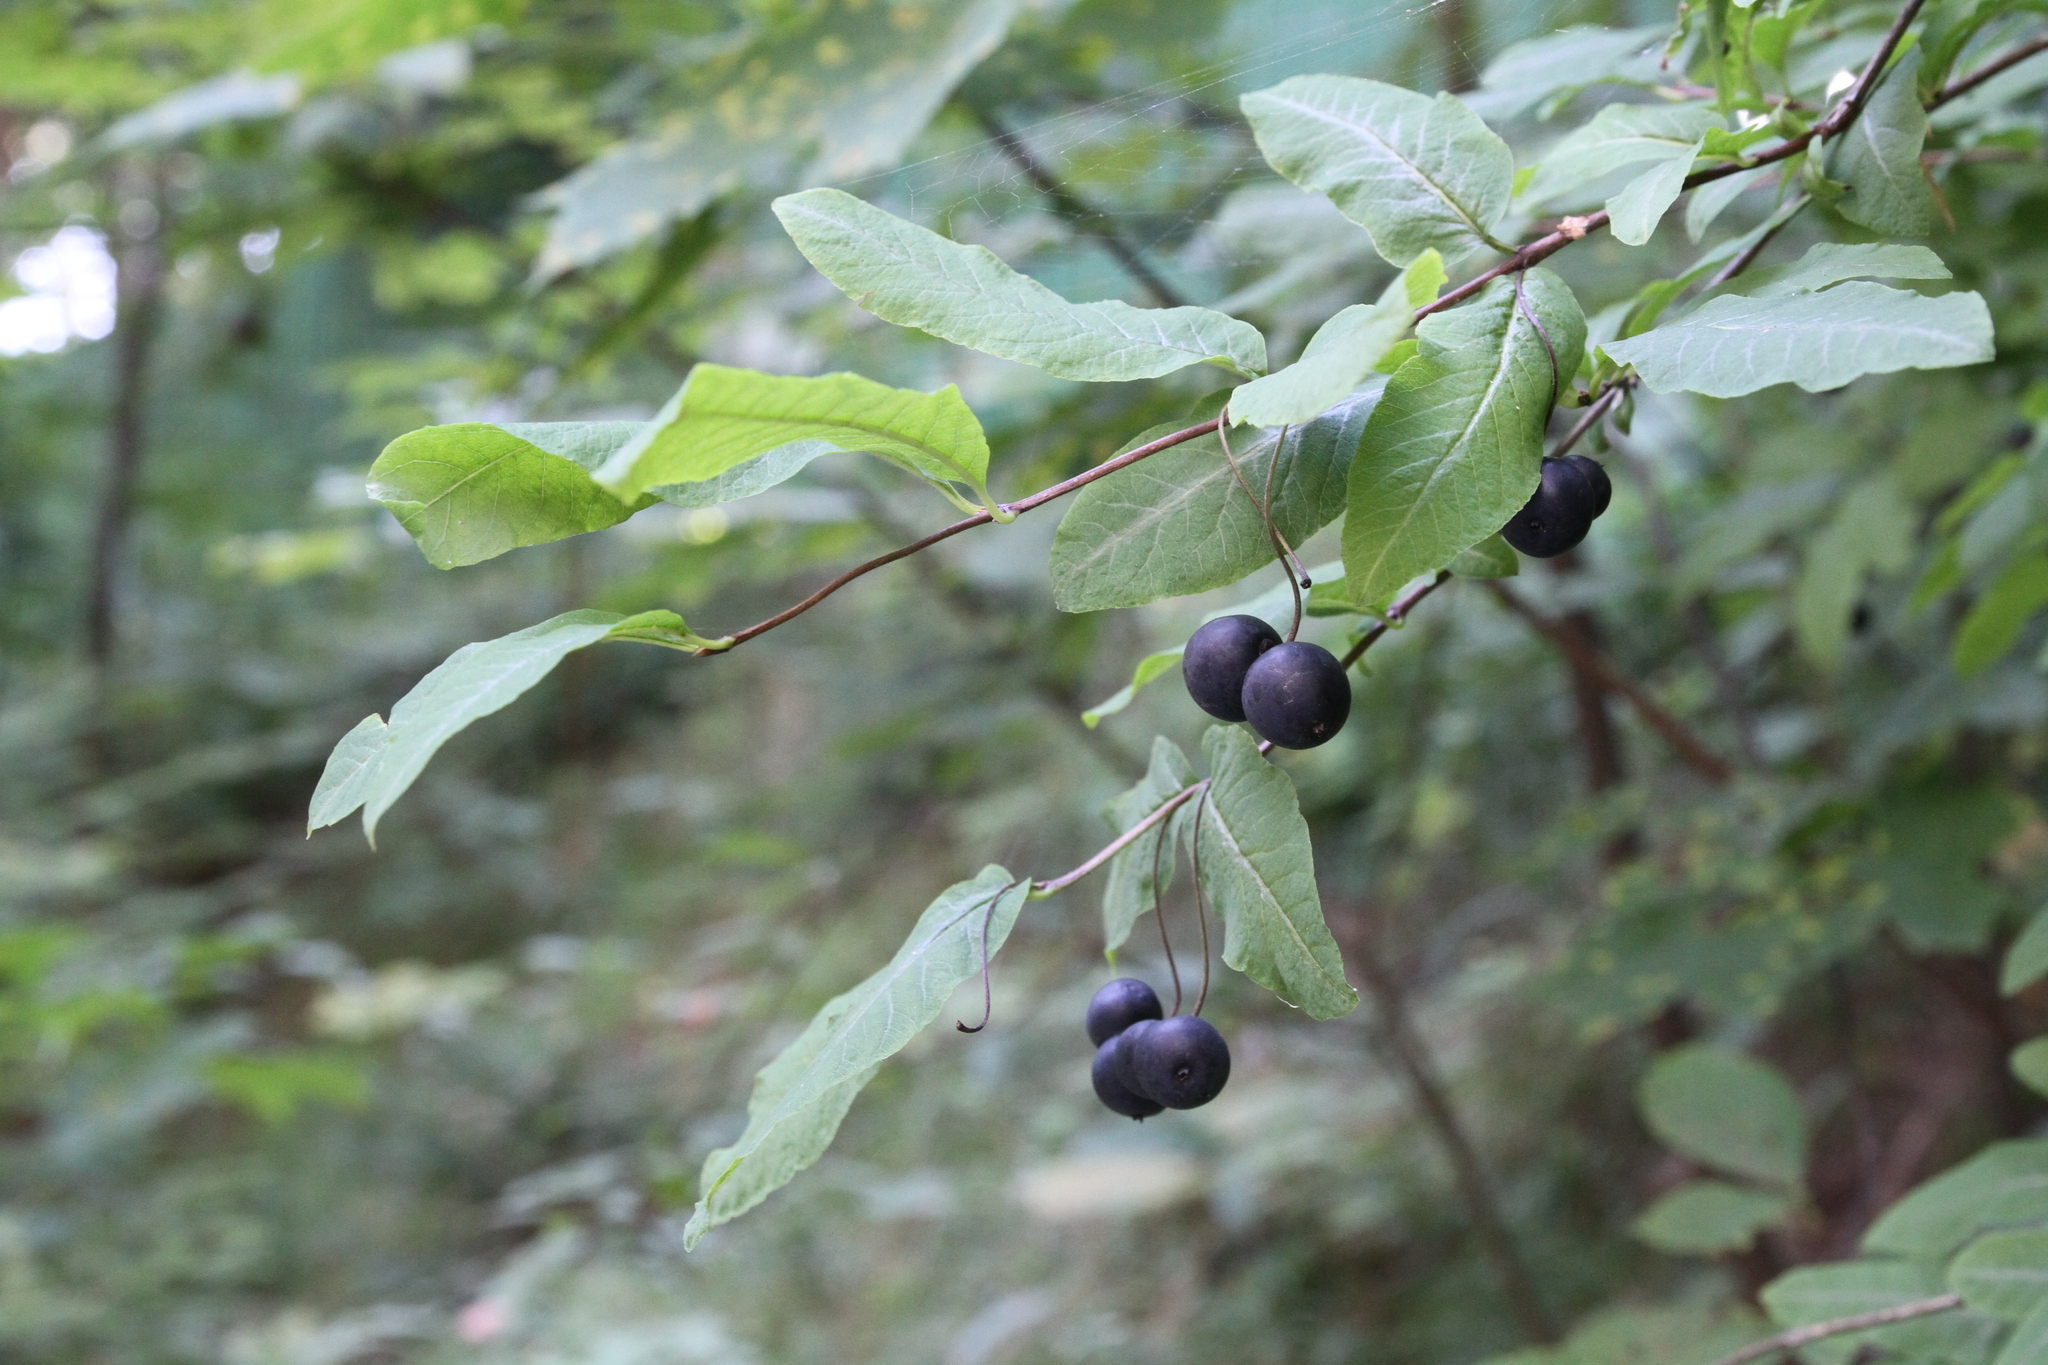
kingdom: Plantae
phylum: Tracheophyta
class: Magnoliopsida
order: Dipsacales
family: Caprifoliaceae
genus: Lonicera
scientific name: Lonicera nigra
